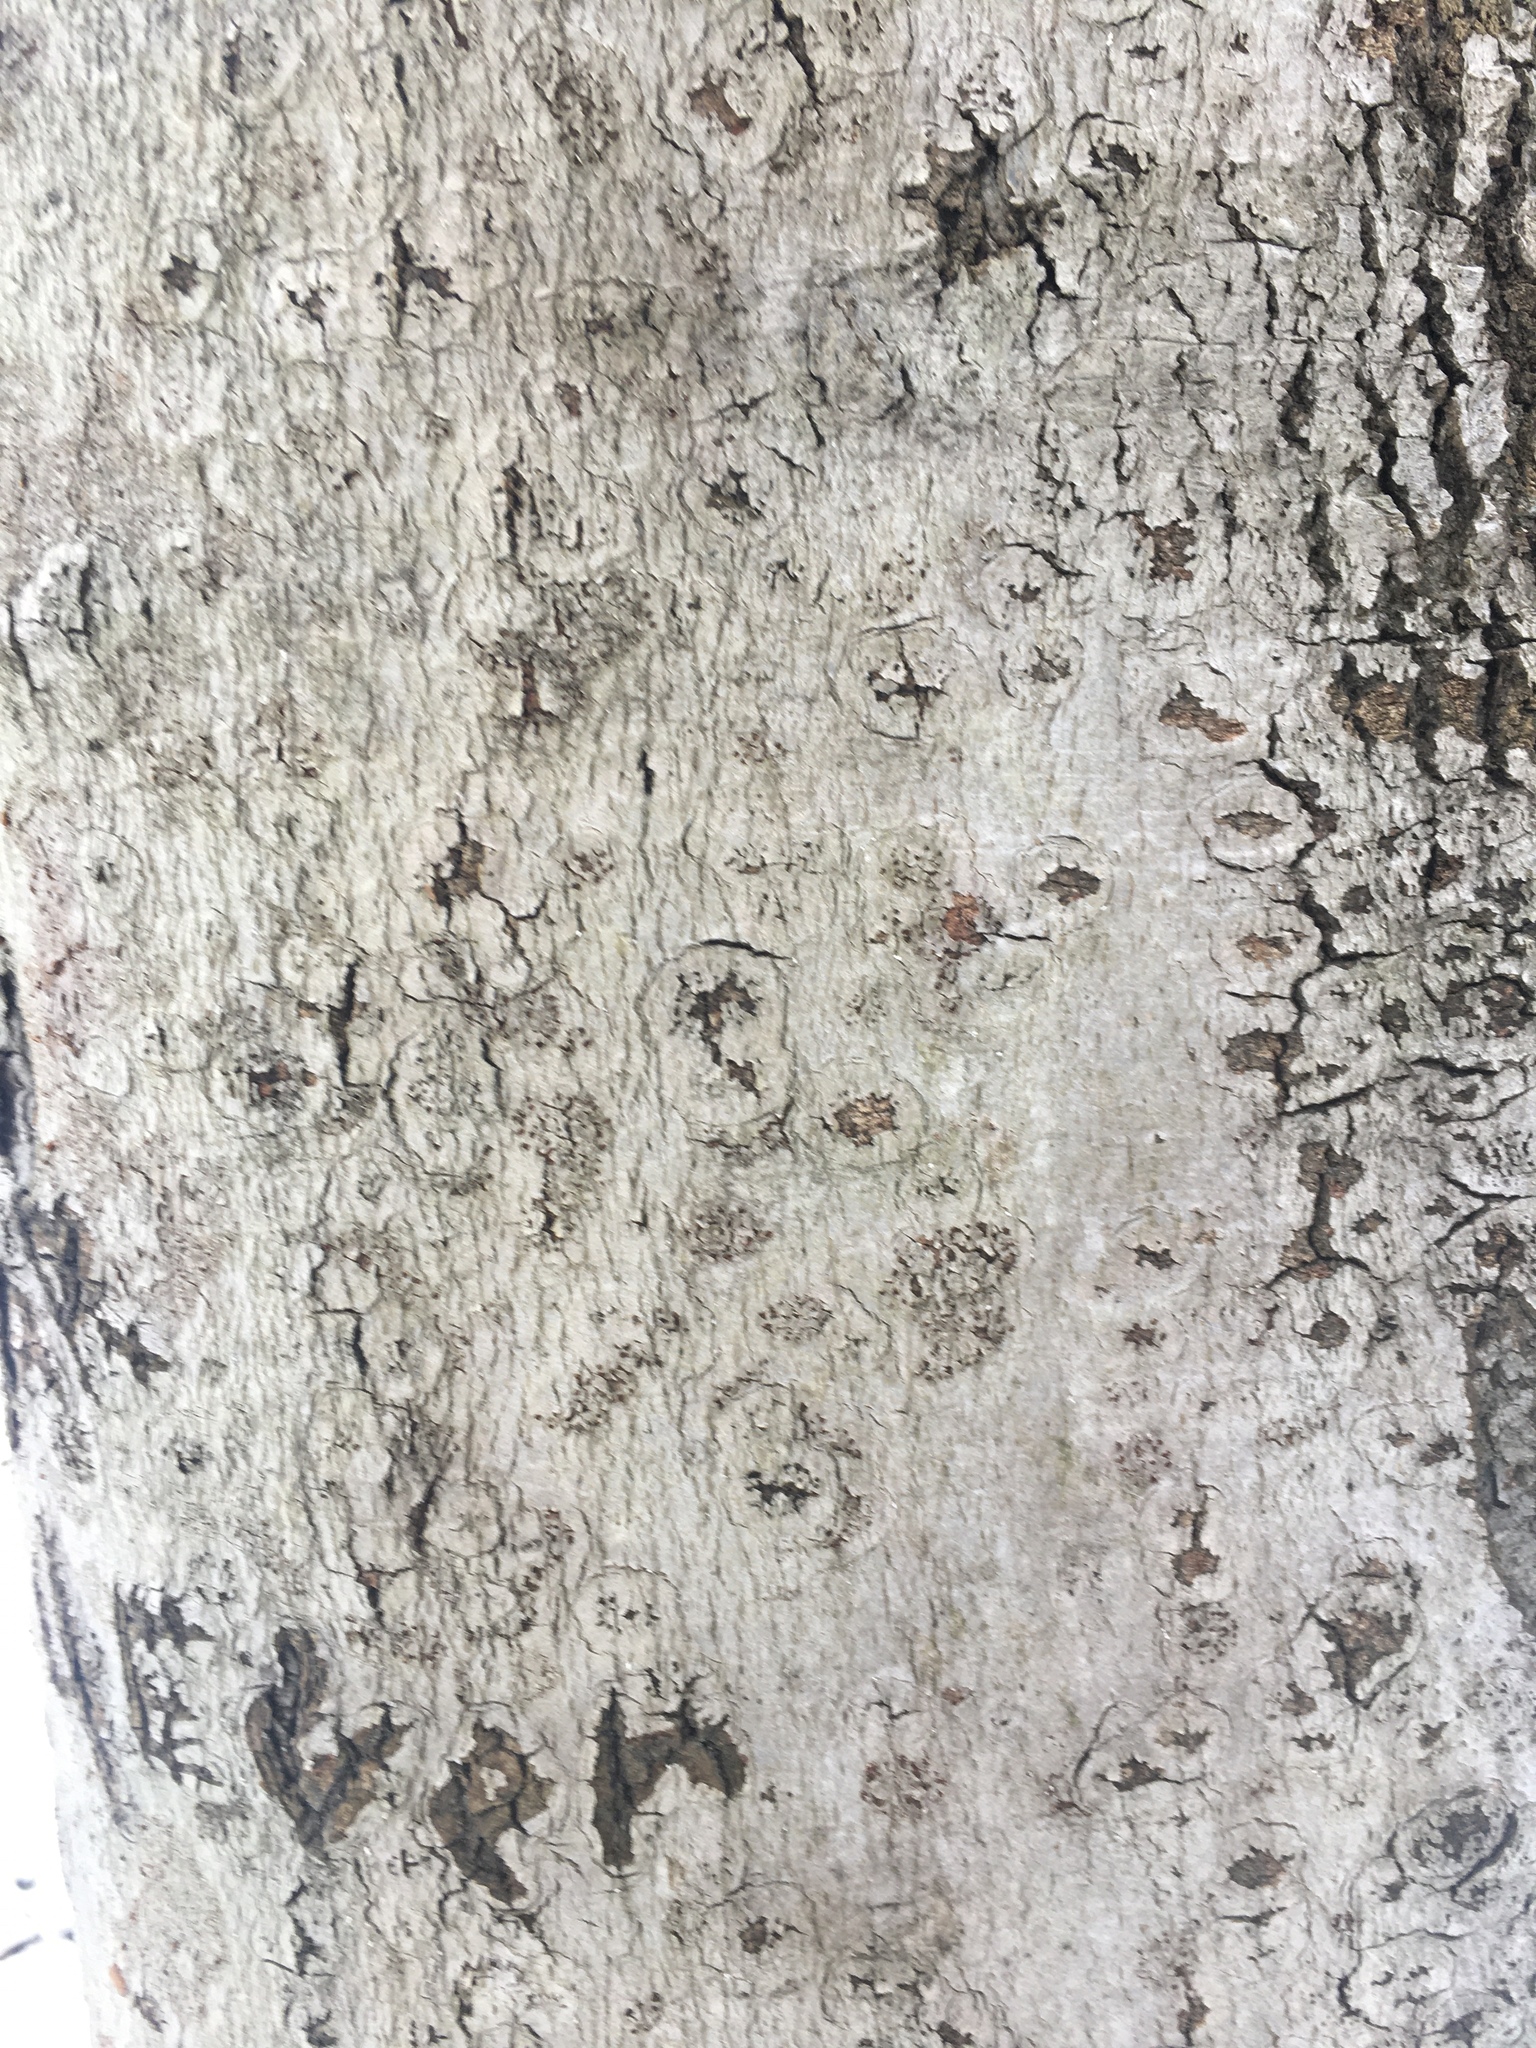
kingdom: Animalia
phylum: Arthropoda
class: Insecta
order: Hemiptera
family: Eriococcidae
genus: Cryptococcus
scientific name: Cryptococcus fagisuga
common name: Beech scale
